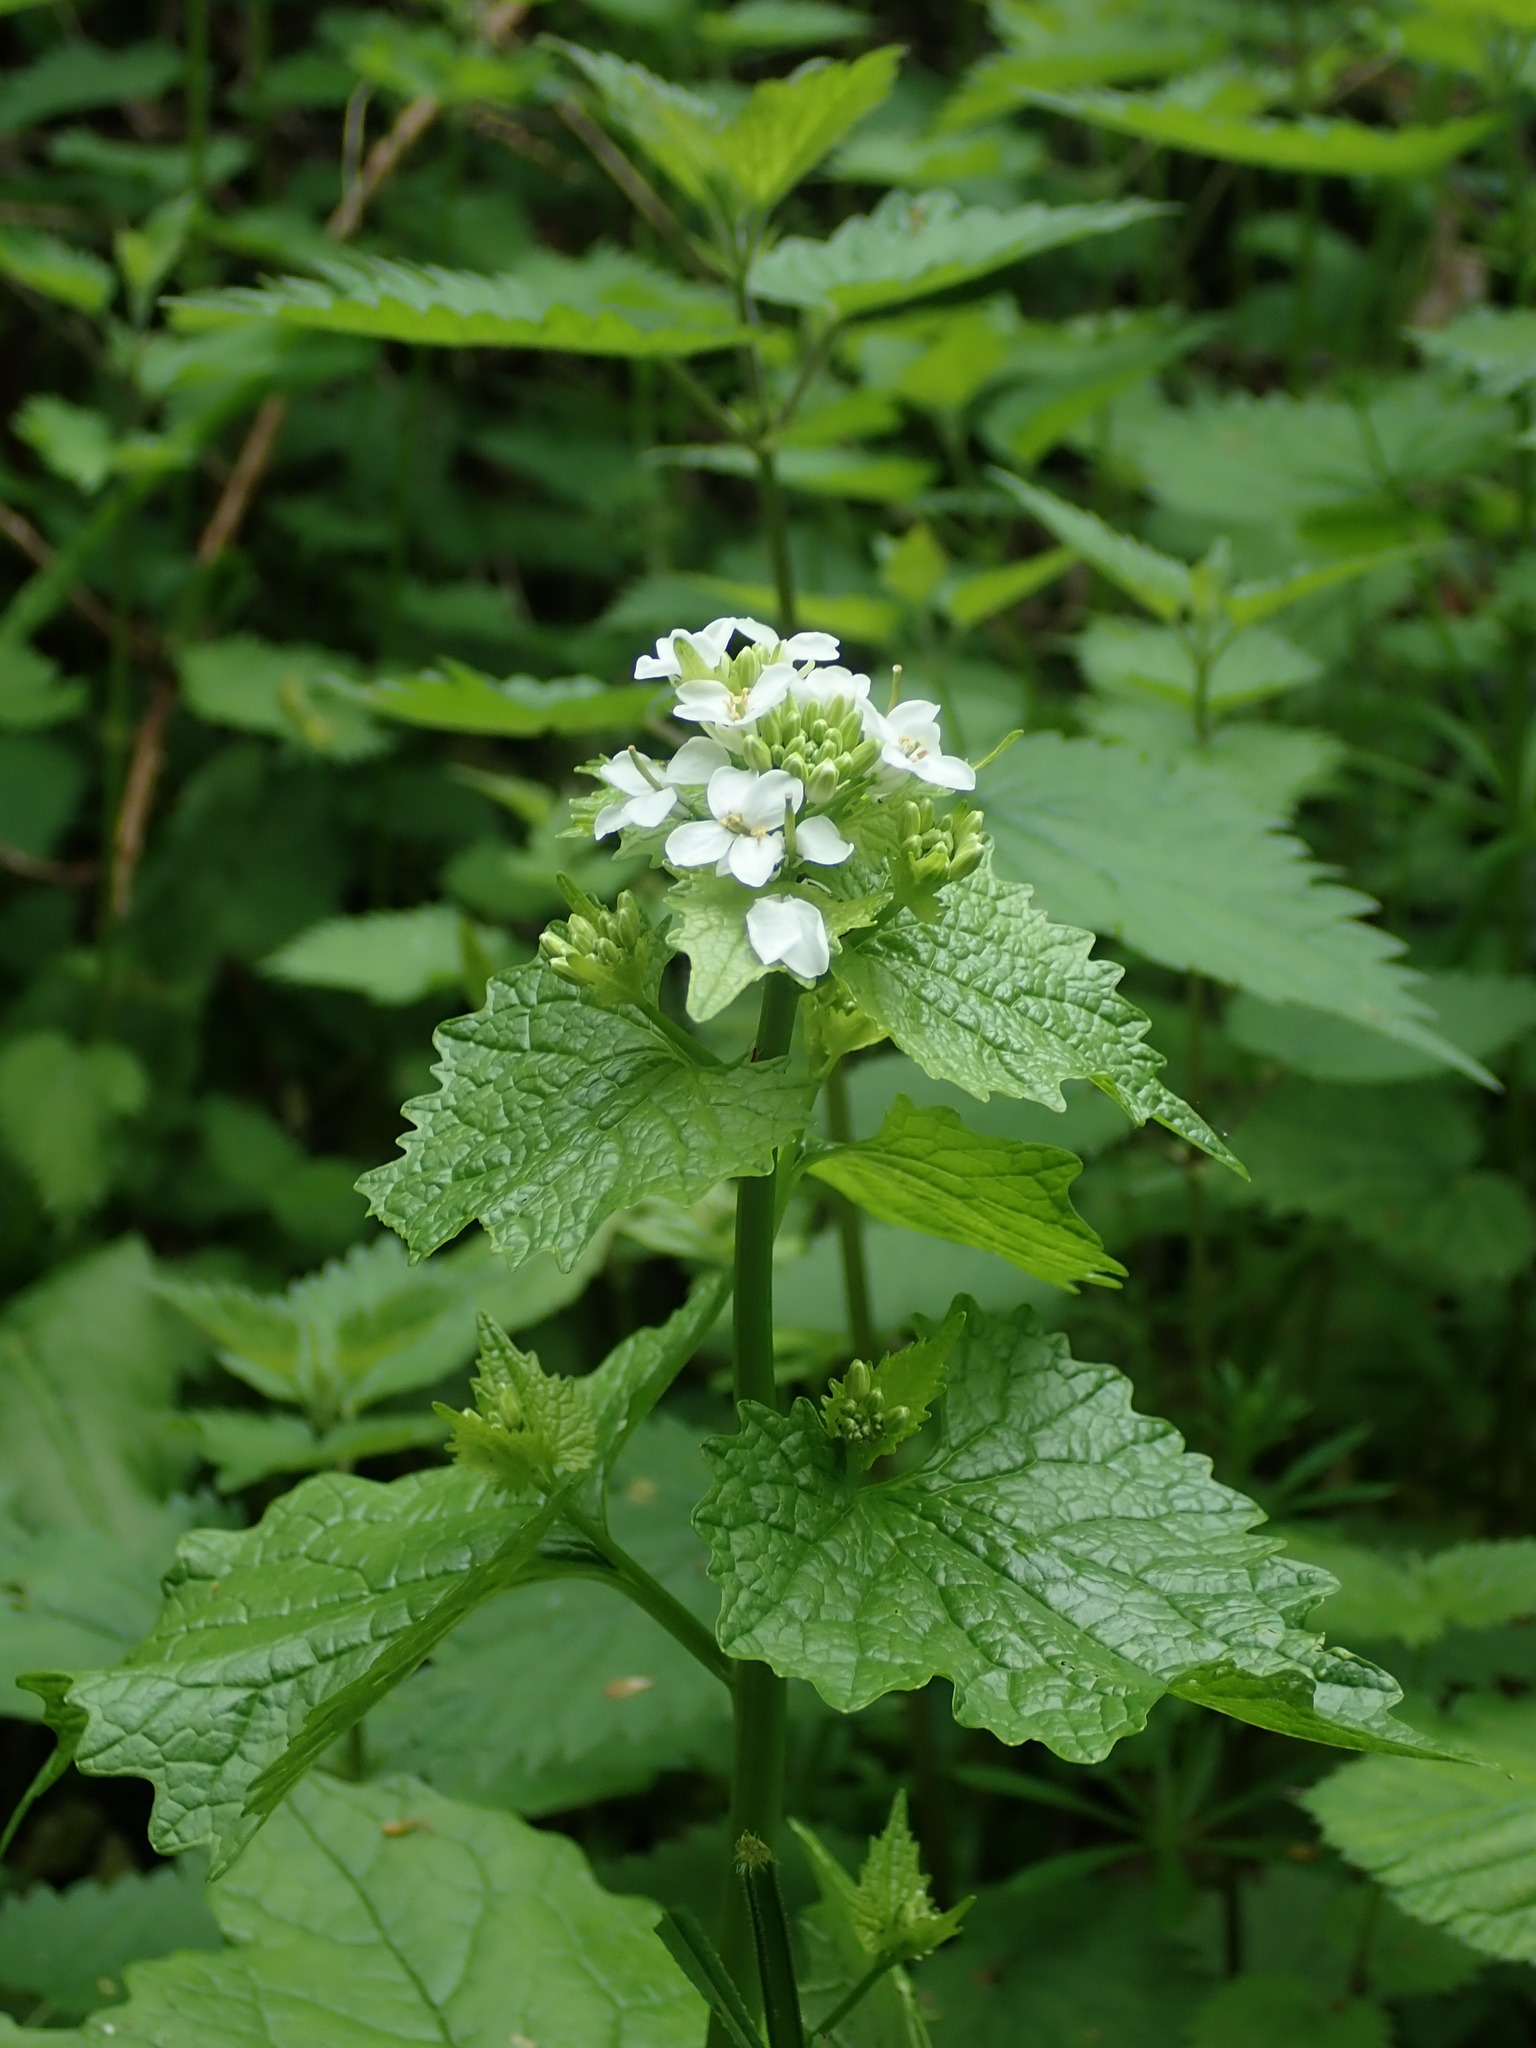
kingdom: Plantae
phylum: Tracheophyta
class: Magnoliopsida
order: Brassicales
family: Brassicaceae
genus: Alliaria
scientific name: Alliaria petiolata
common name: Garlic mustard
